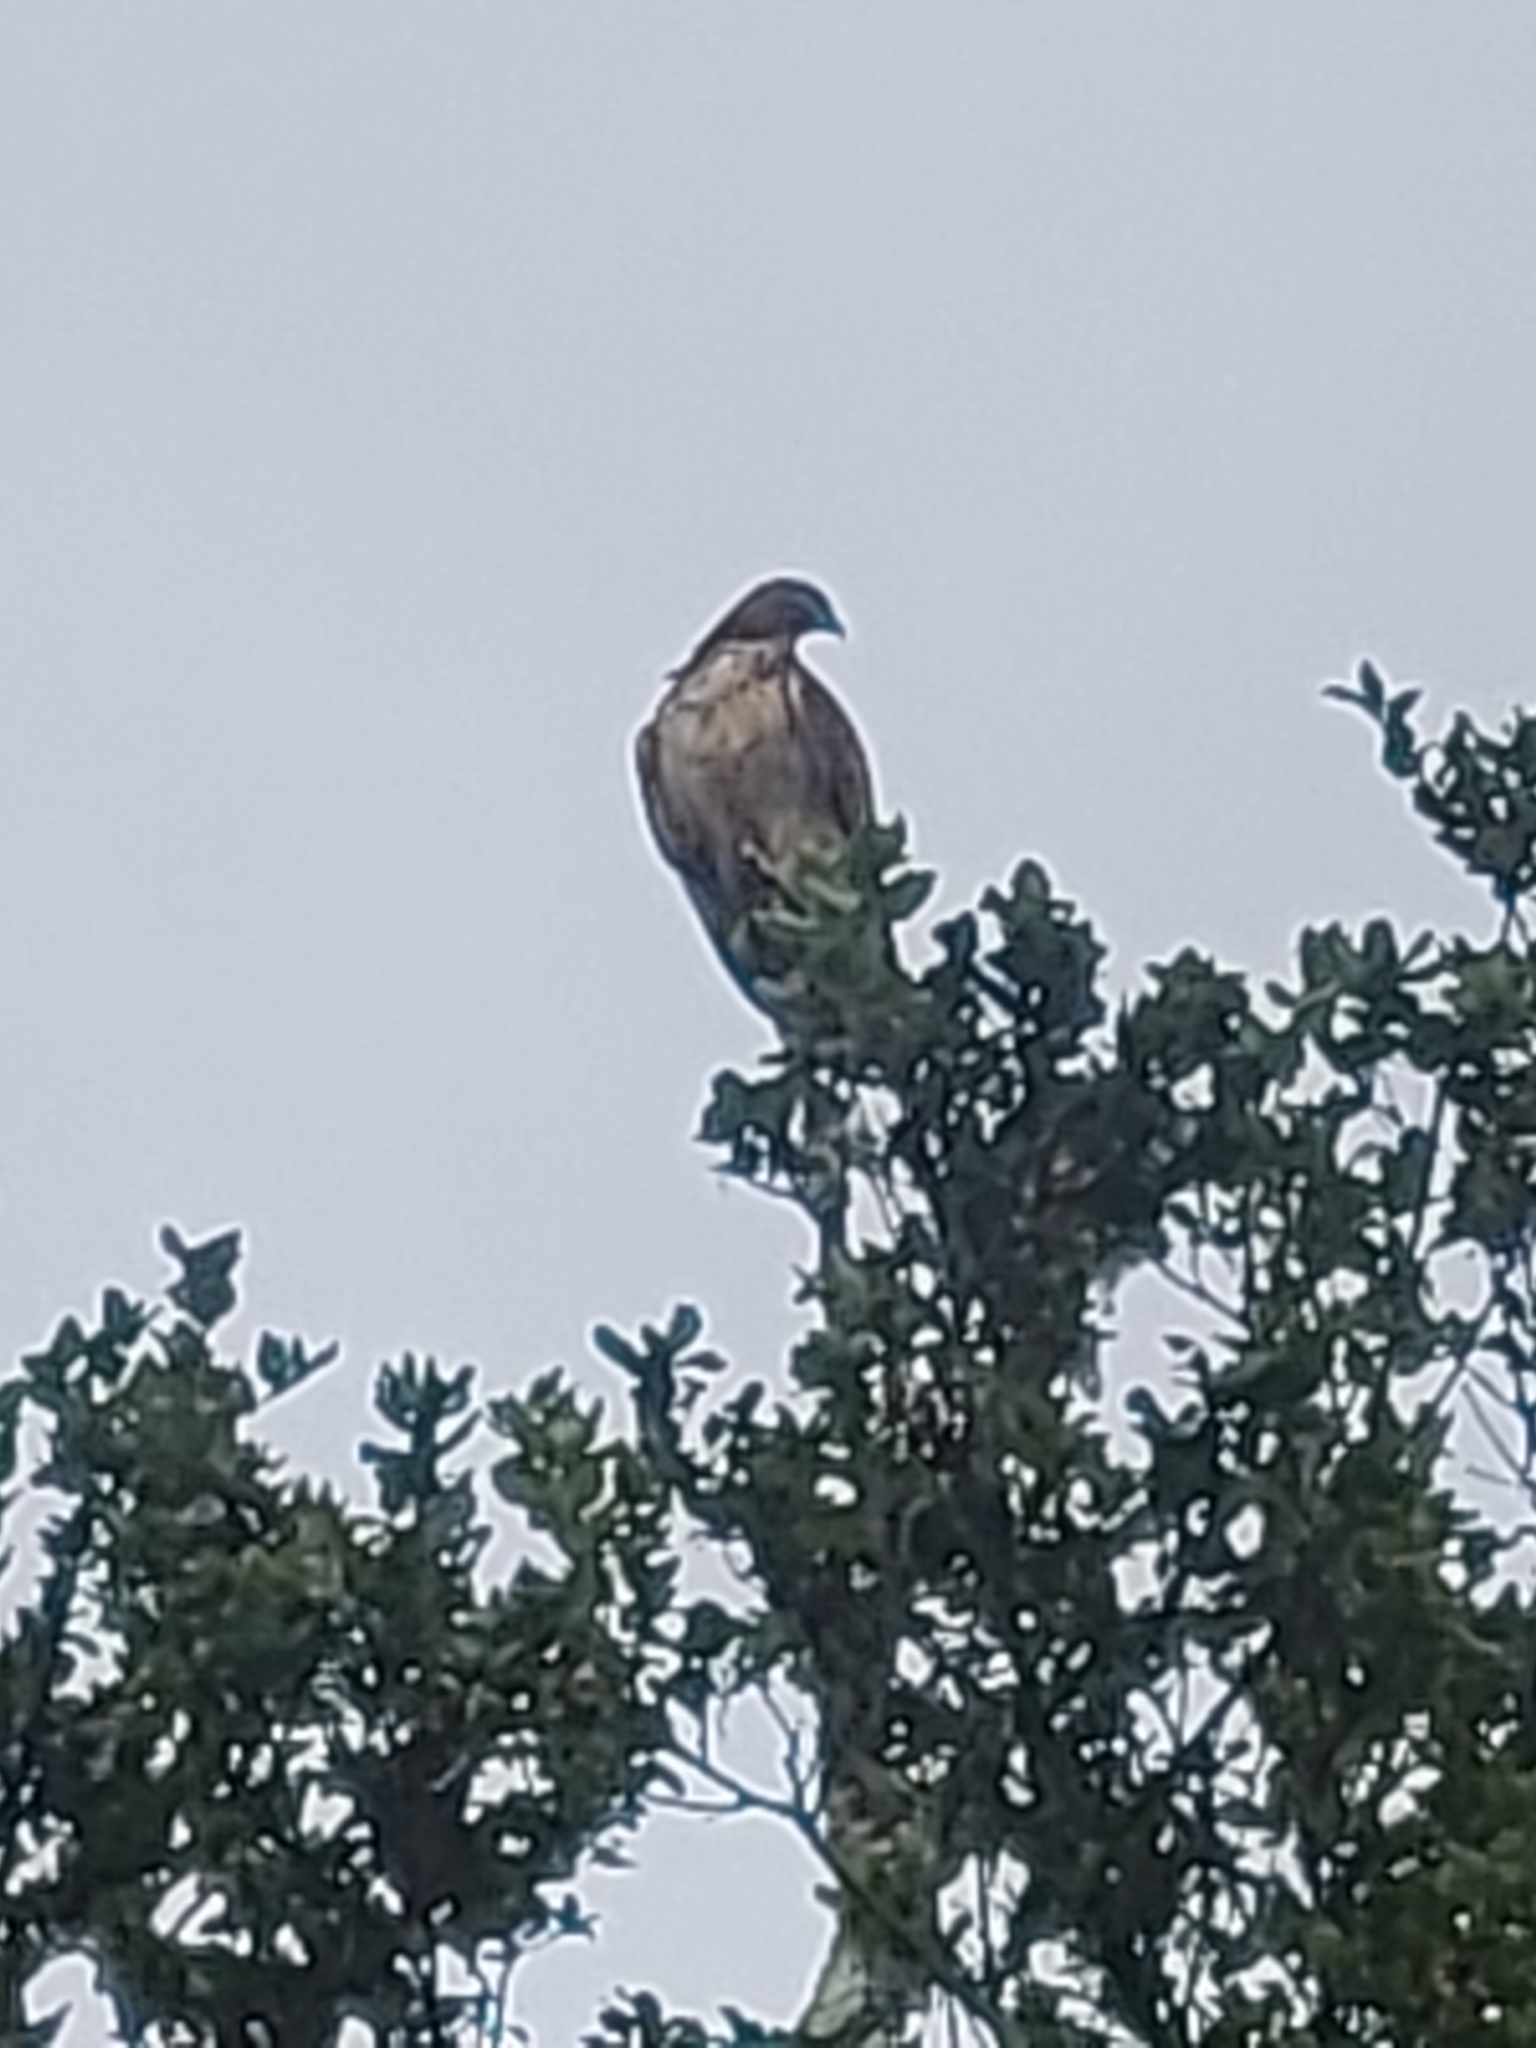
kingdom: Animalia
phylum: Chordata
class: Aves
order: Accipitriformes
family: Accipitridae
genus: Buteo
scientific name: Buteo jamaicensis
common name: Red-tailed hawk
